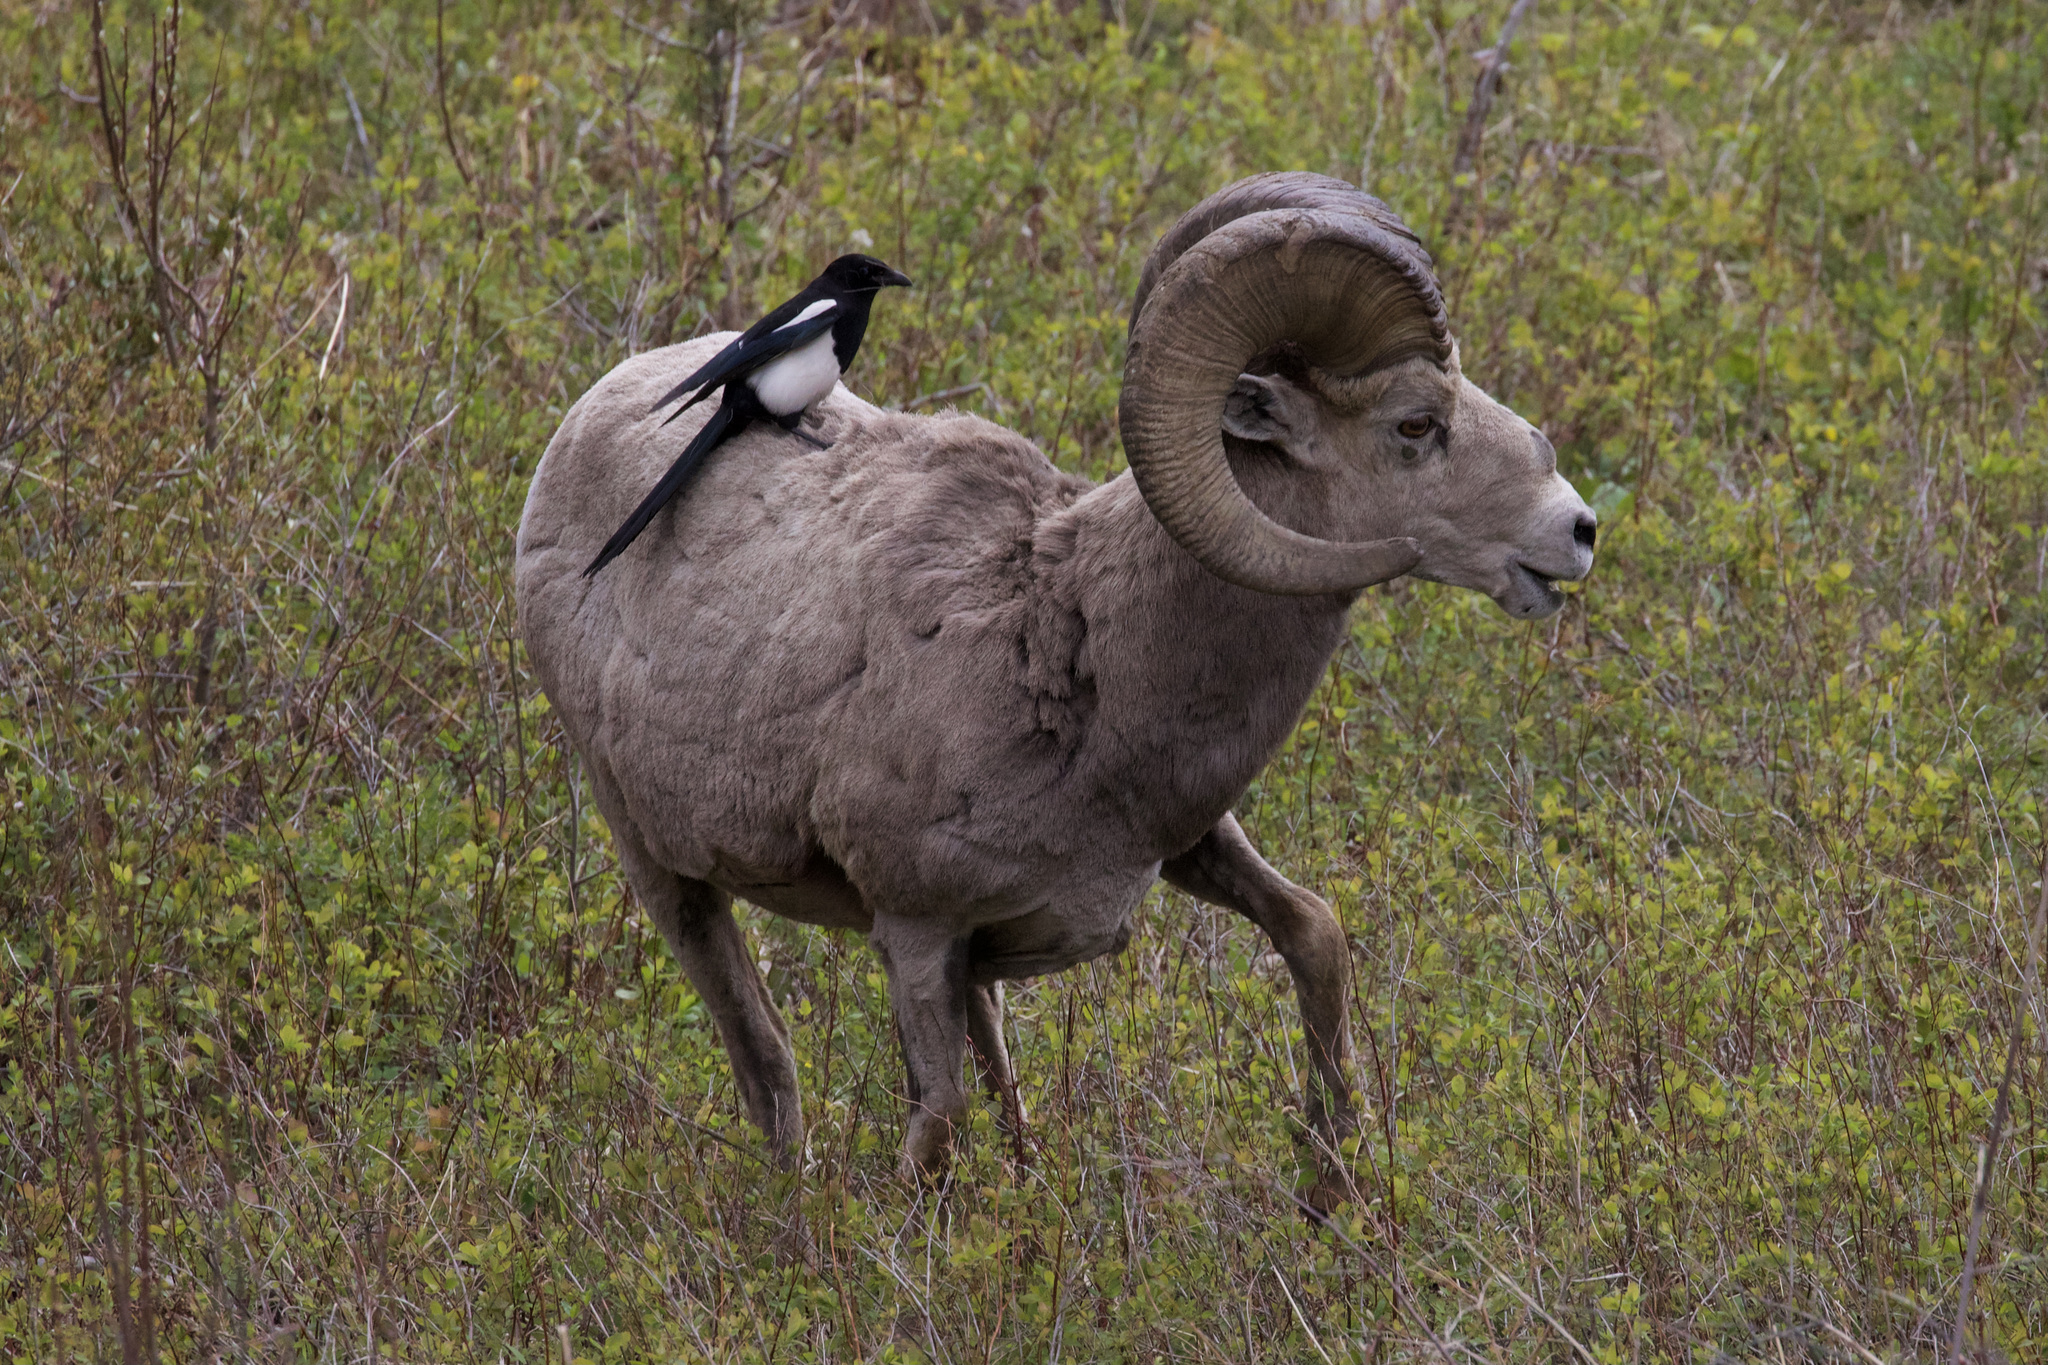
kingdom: Animalia
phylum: Chordata
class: Aves
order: Passeriformes
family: Corvidae
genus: Pica
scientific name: Pica hudsonia
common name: Black-billed magpie
